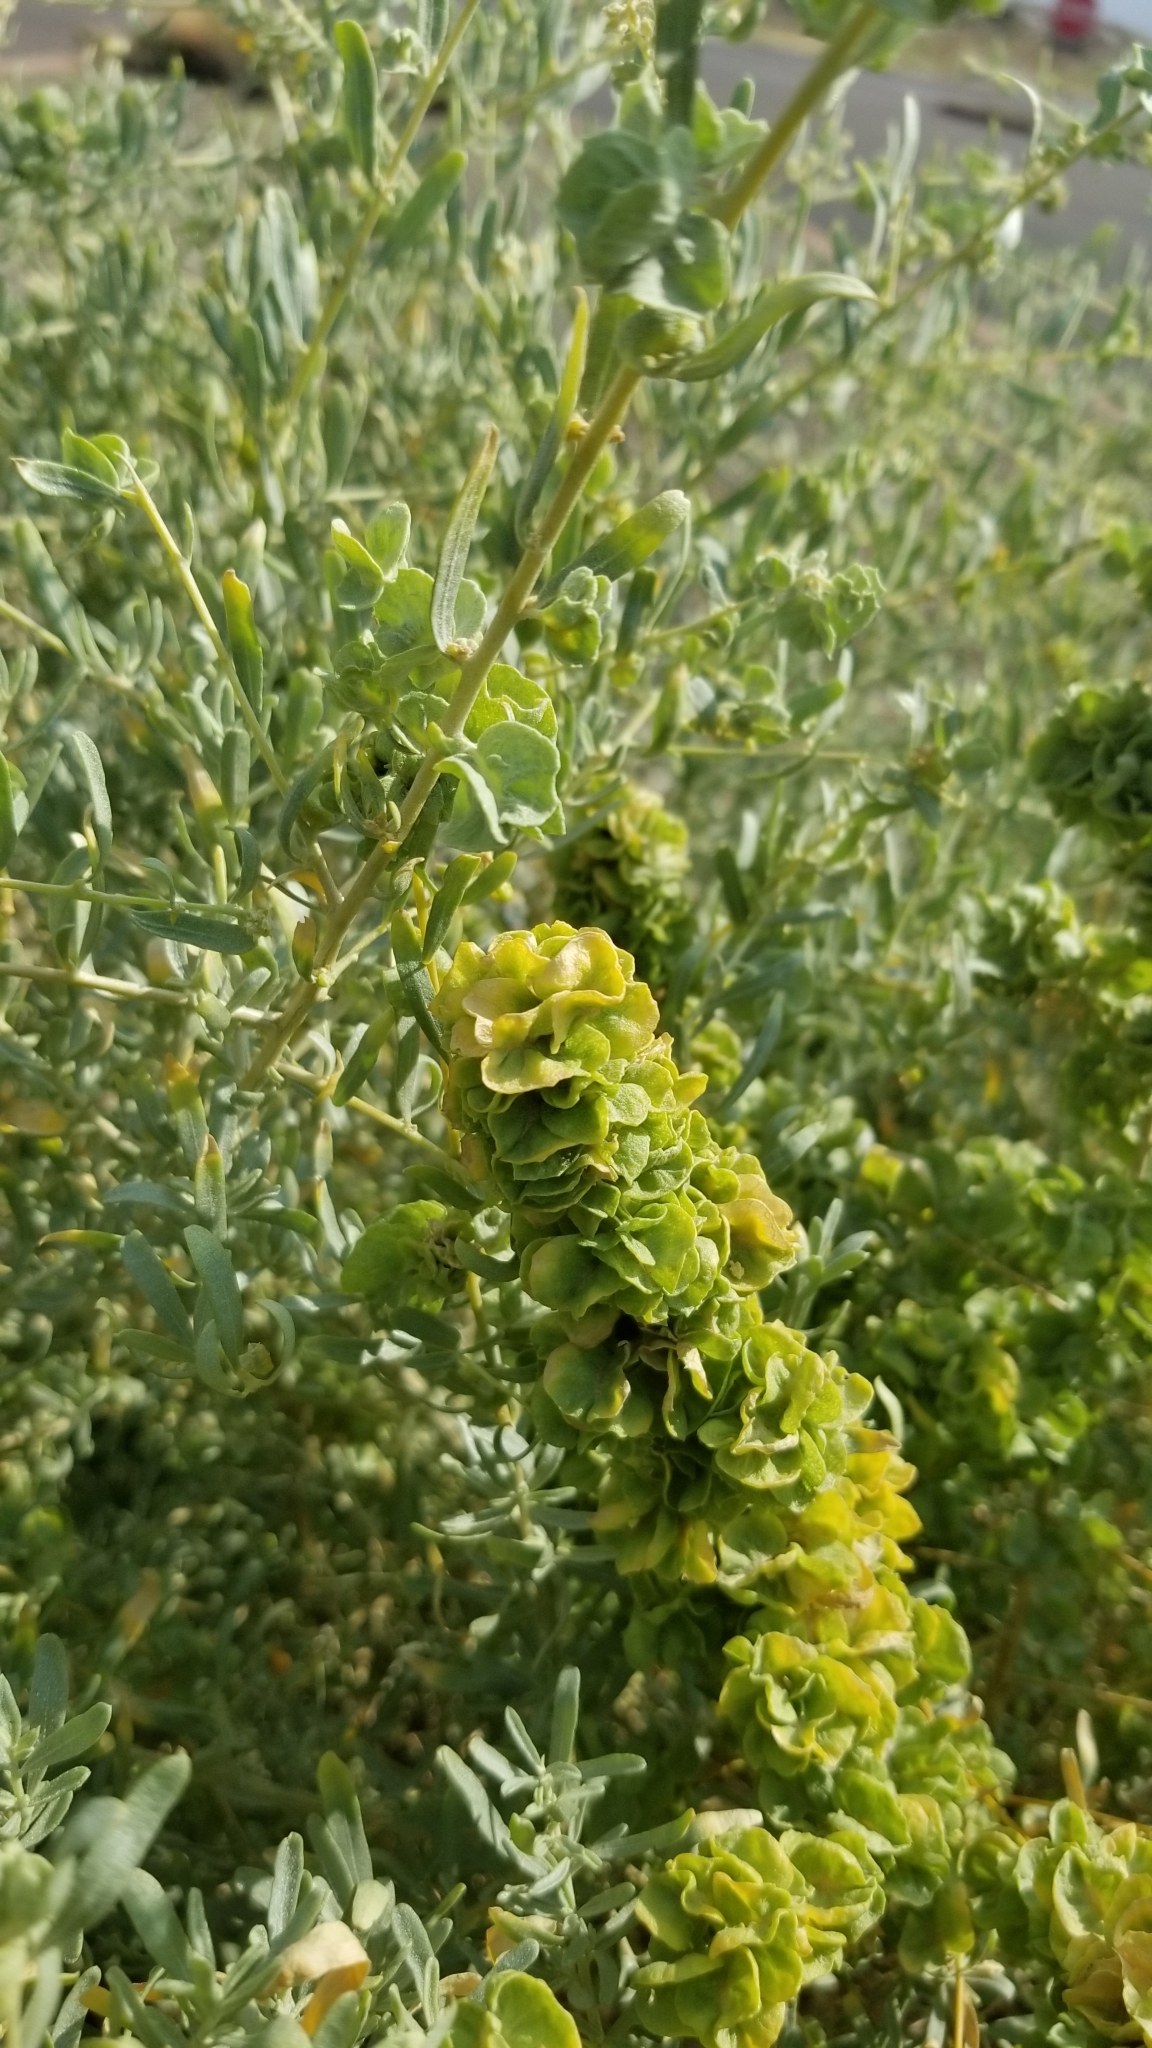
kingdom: Plantae
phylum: Tracheophyta
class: Magnoliopsida
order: Caryophyllales
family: Amaranthaceae
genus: Atriplex
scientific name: Atriplex canescens
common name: Four-wing saltbush
